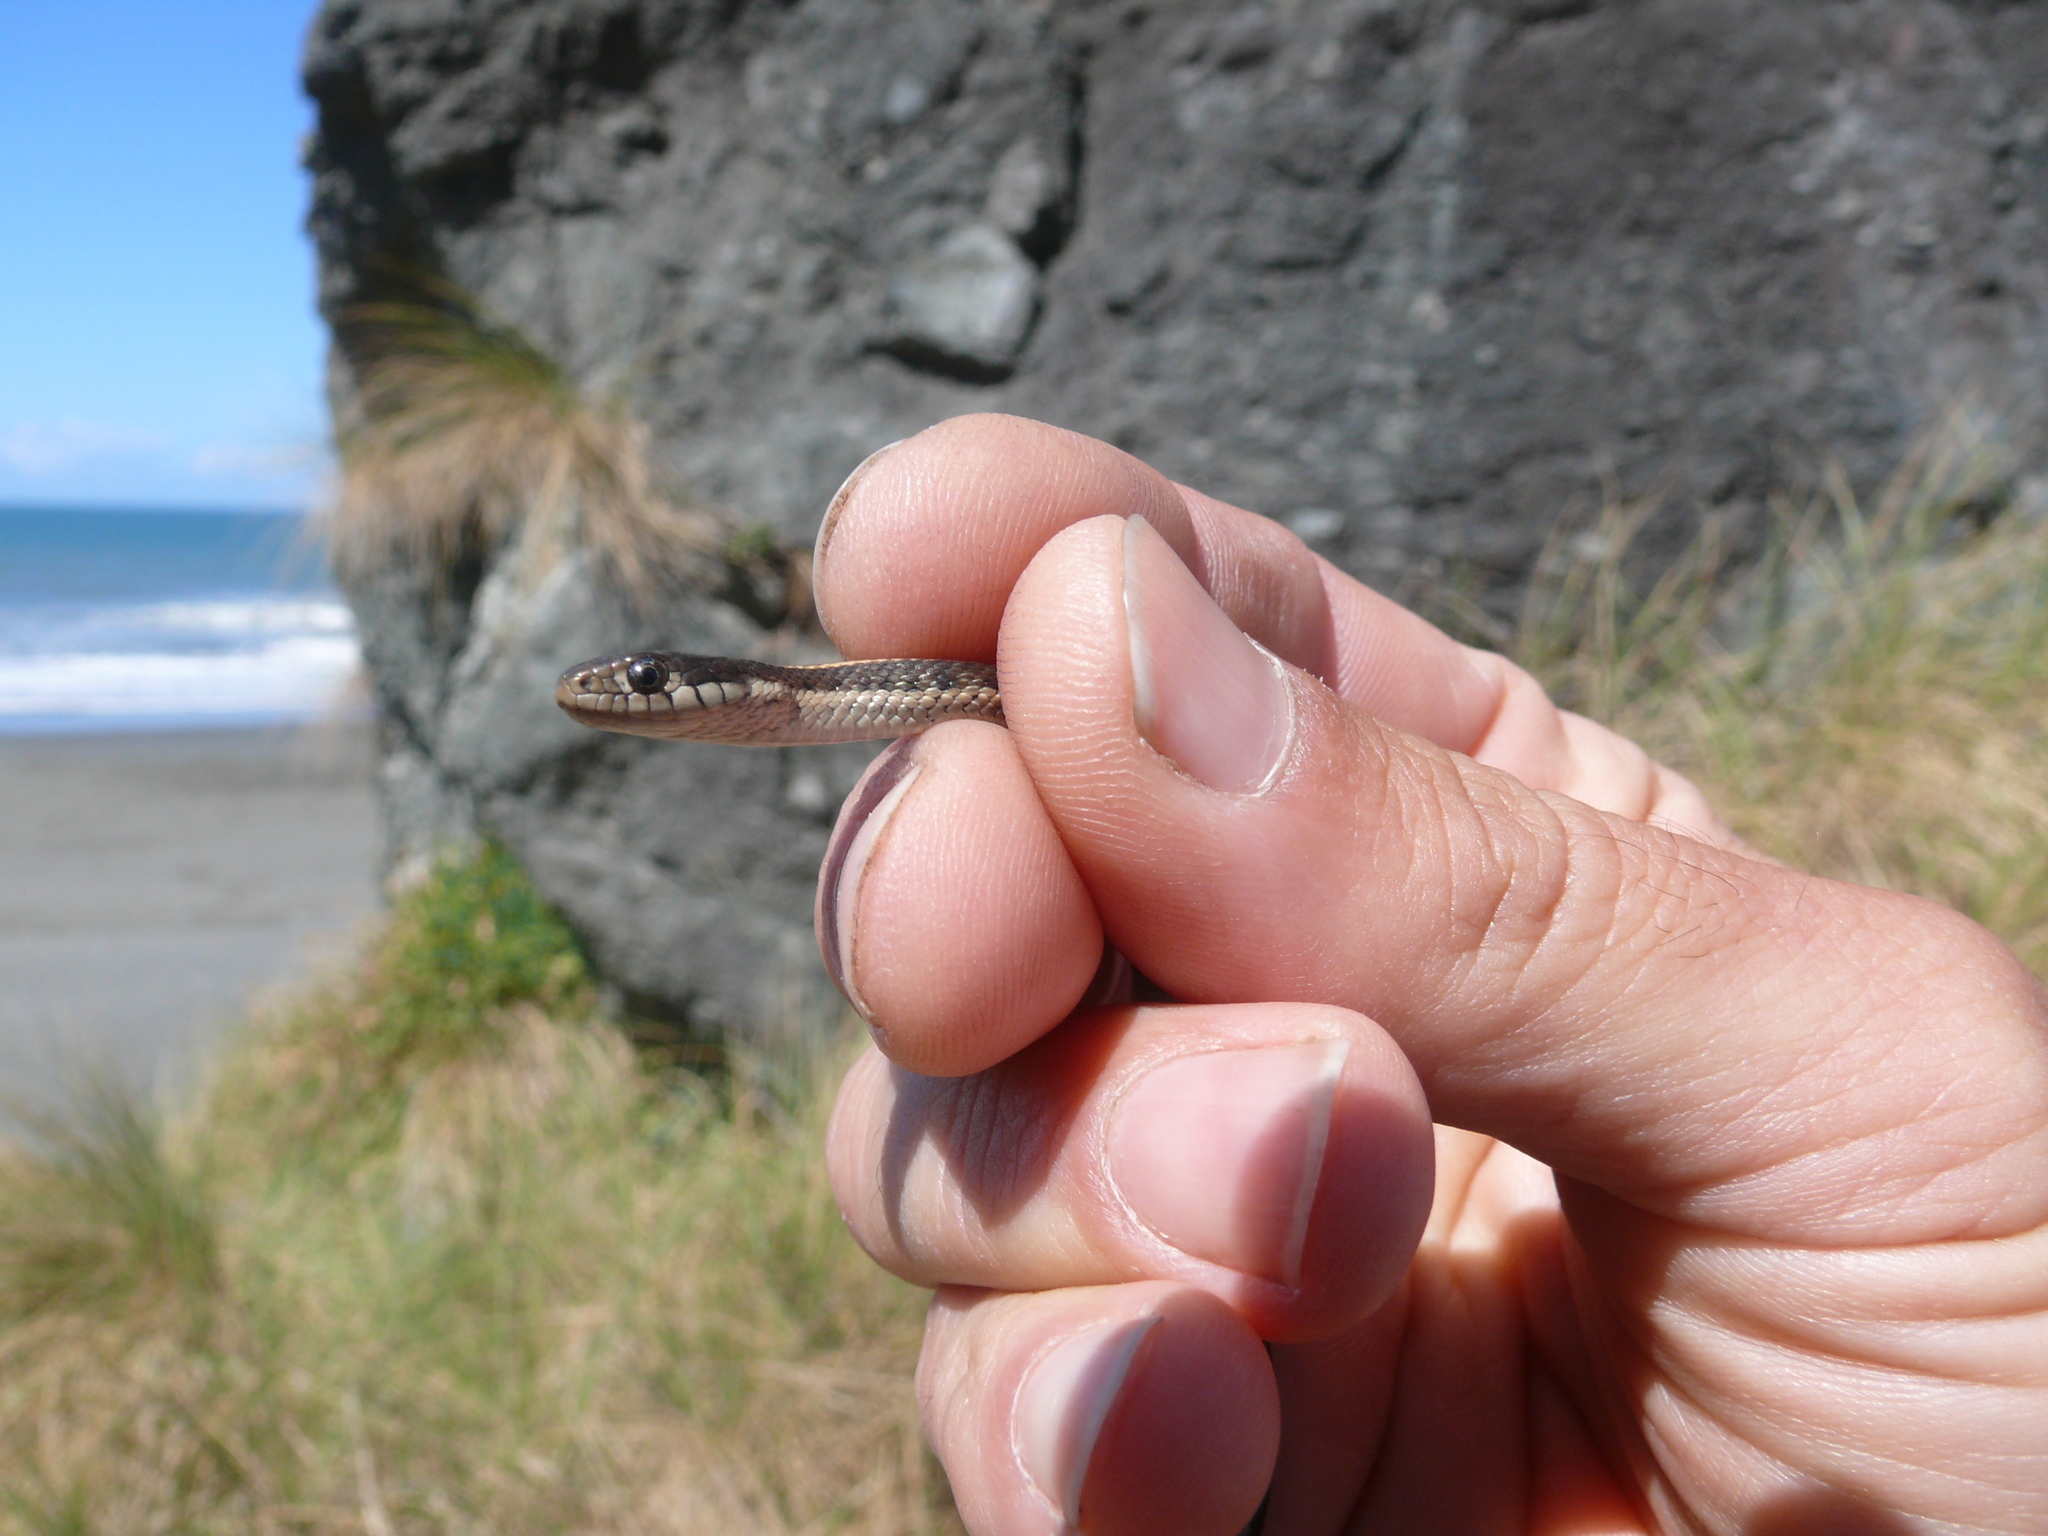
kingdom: Animalia
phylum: Chordata
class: Squamata
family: Colubridae
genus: Thamnophis
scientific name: Thamnophis atratus
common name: Pacific coast aquatic garter snake
